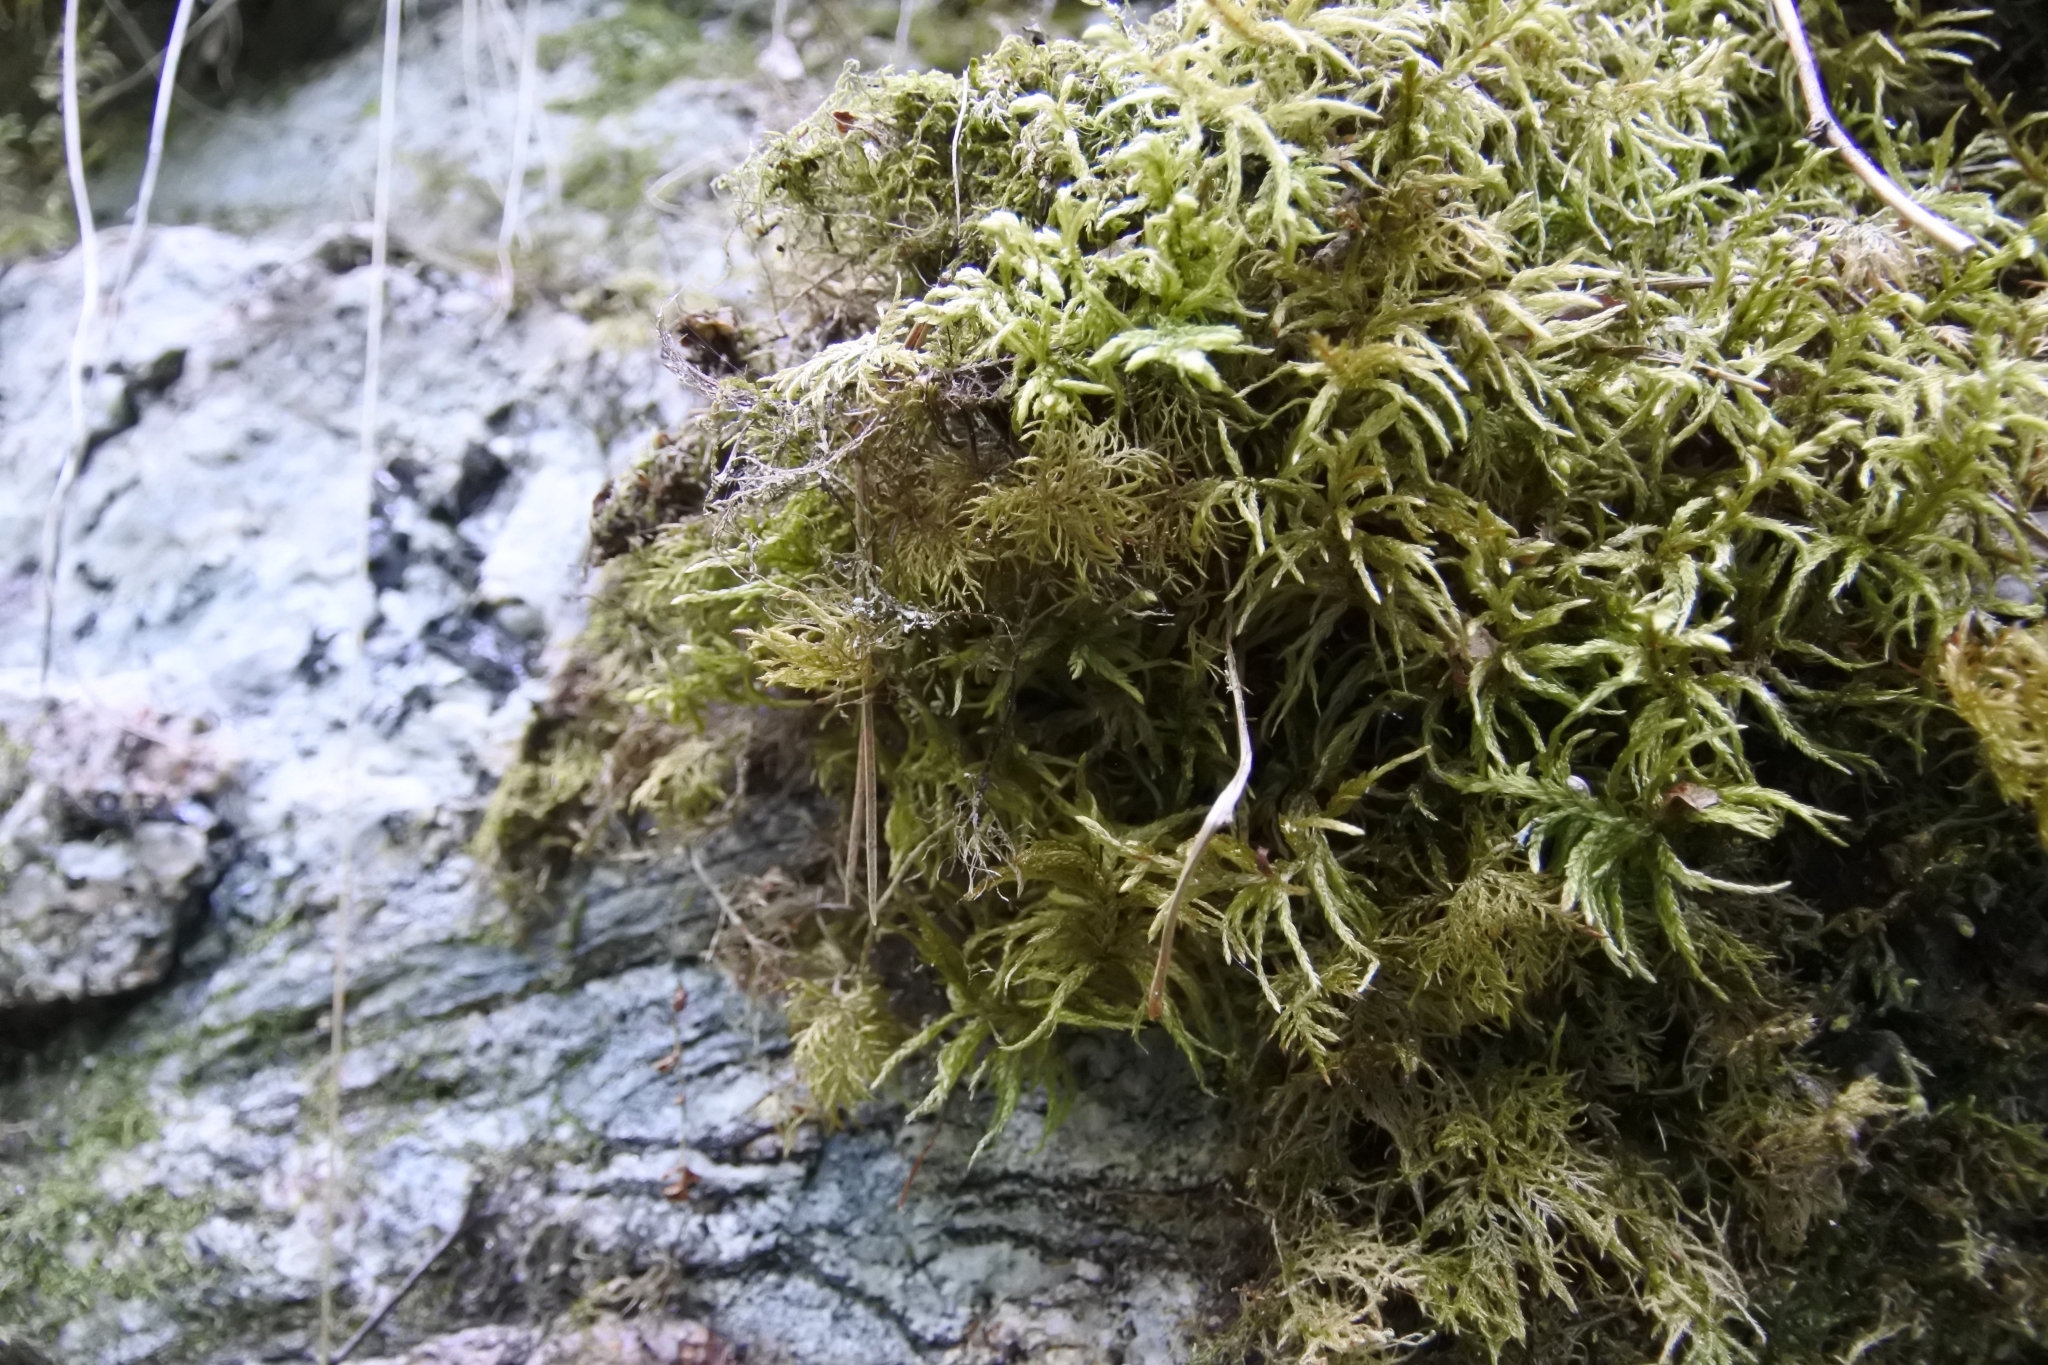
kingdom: Plantae
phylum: Bryophyta
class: Bryopsida
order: Hypnales
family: Hylocomiaceae
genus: Hylocomium
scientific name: Hylocomium splendens
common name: Stairstep moss
